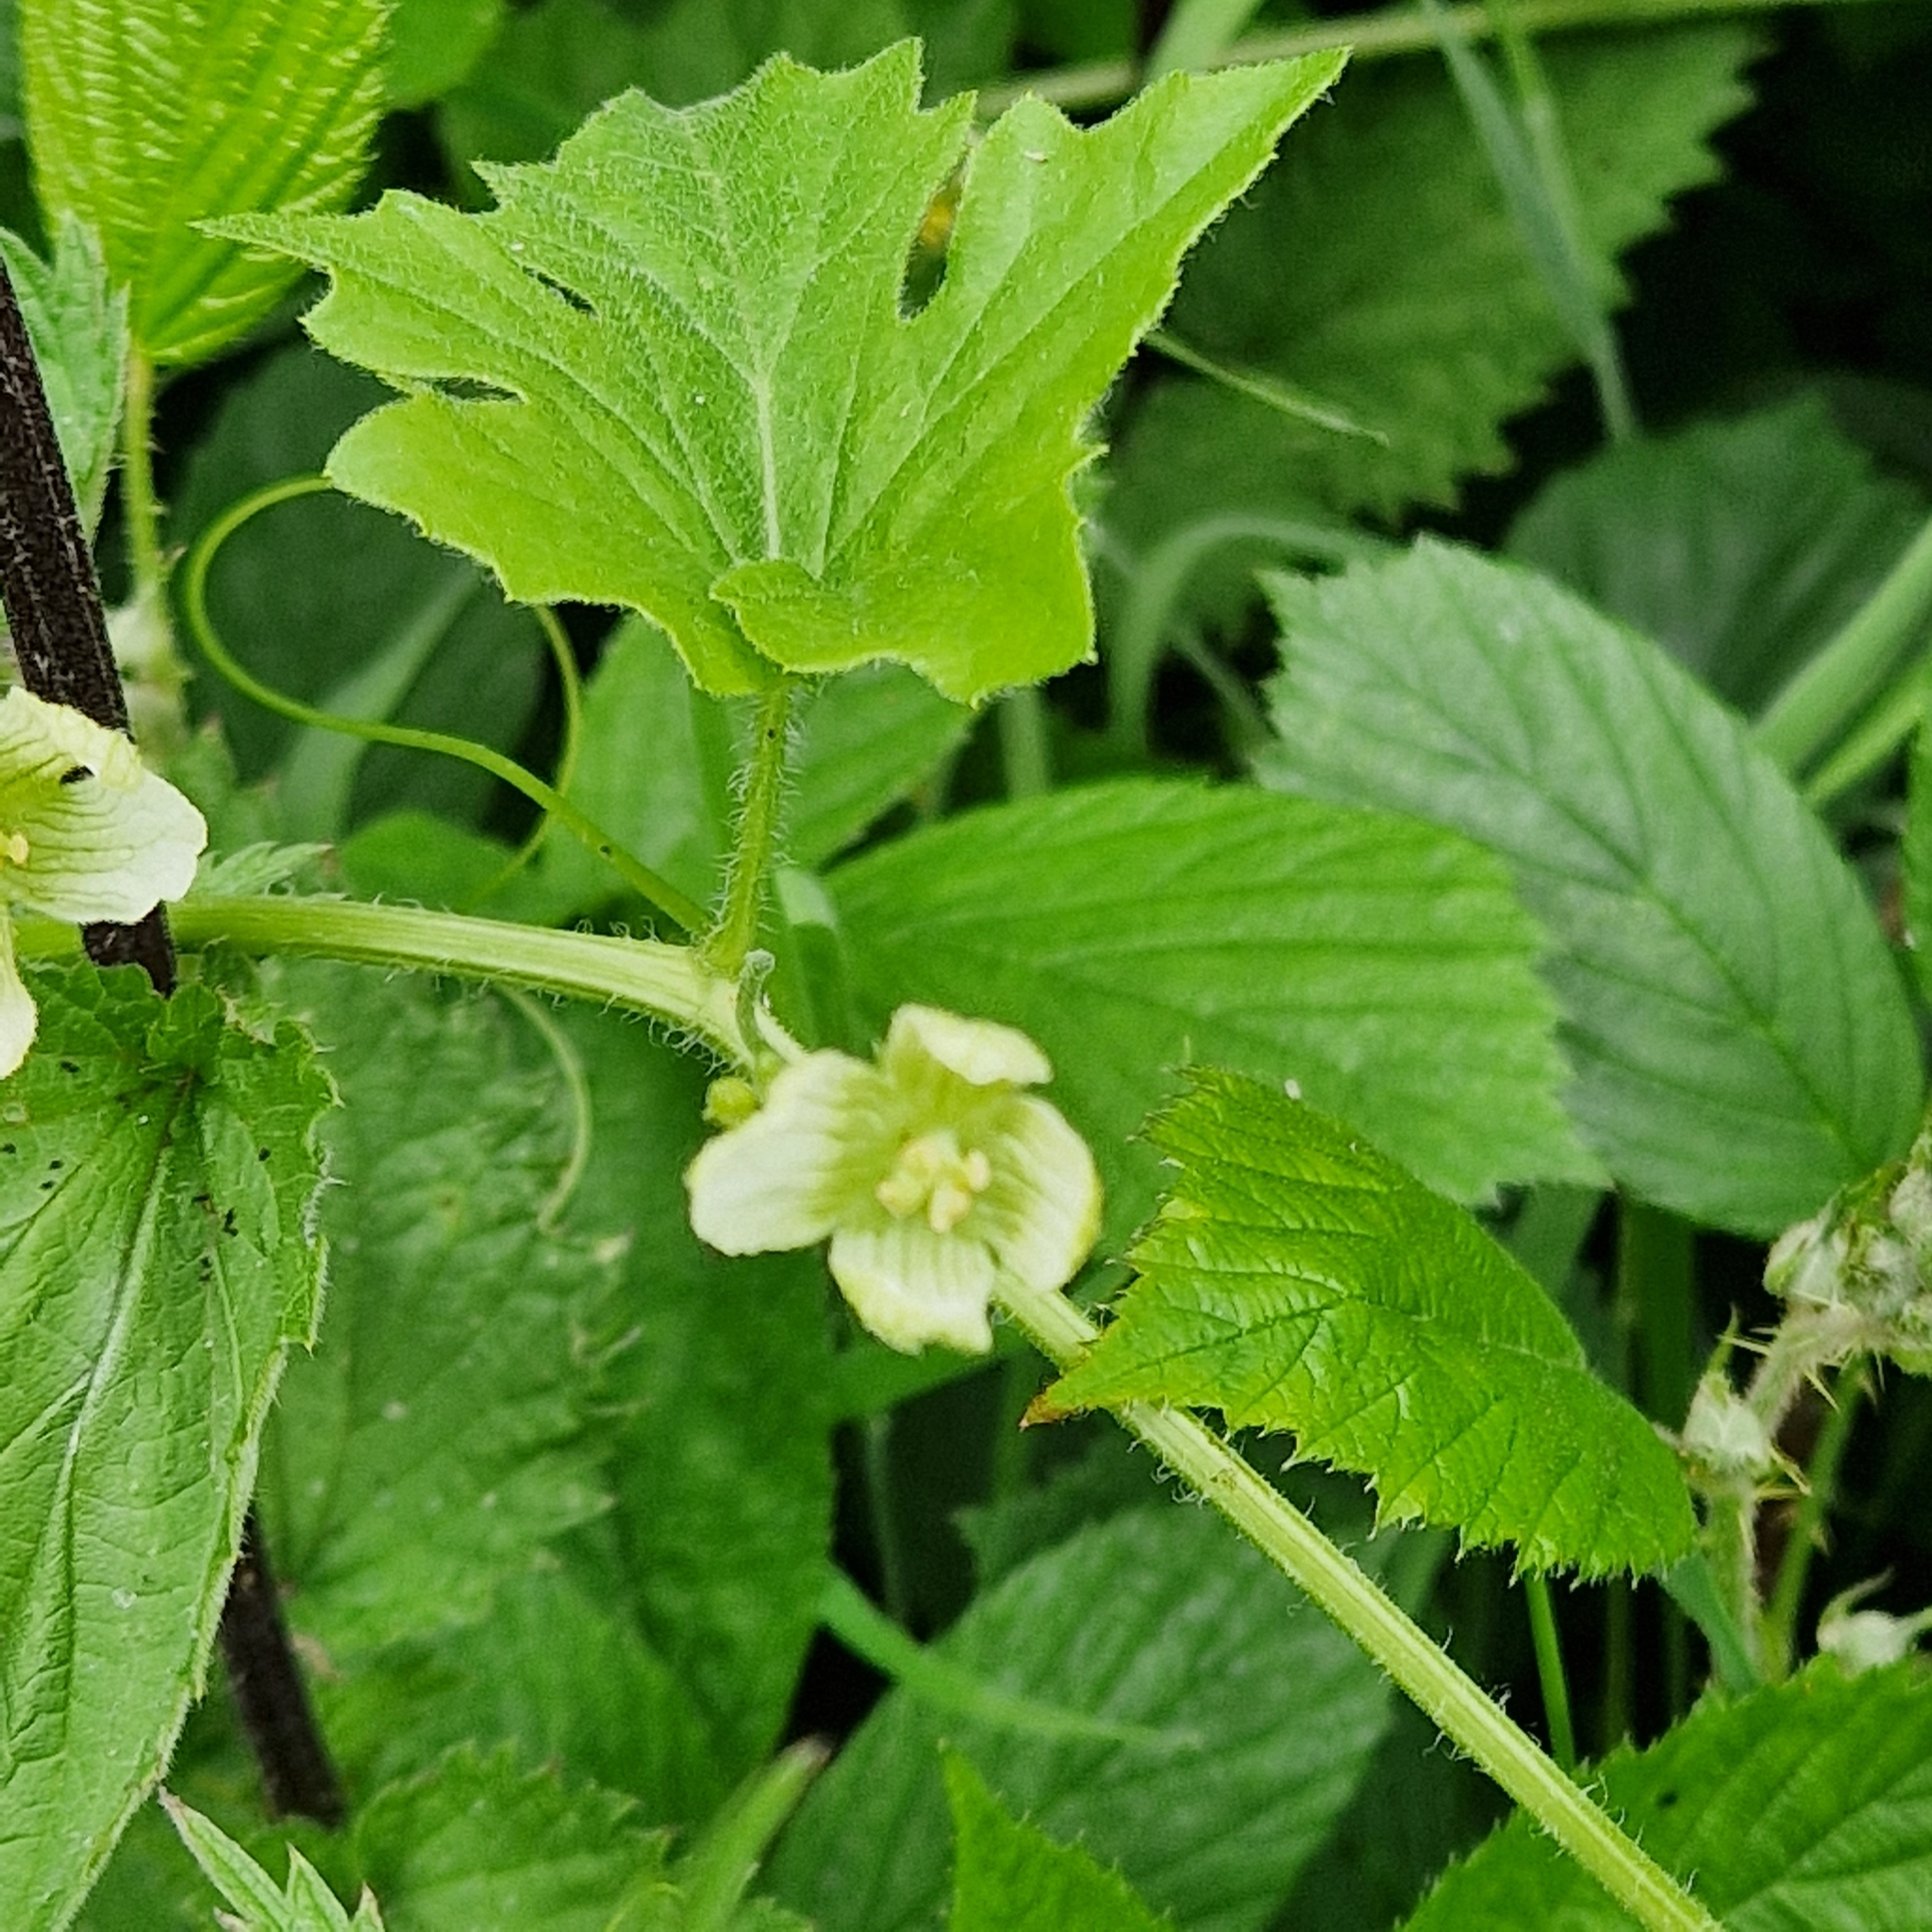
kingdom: Plantae
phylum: Tracheophyta
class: Magnoliopsida
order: Cucurbitales
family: Cucurbitaceae
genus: Bryonia
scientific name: Bryonia cretica
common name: Cretan bryony
